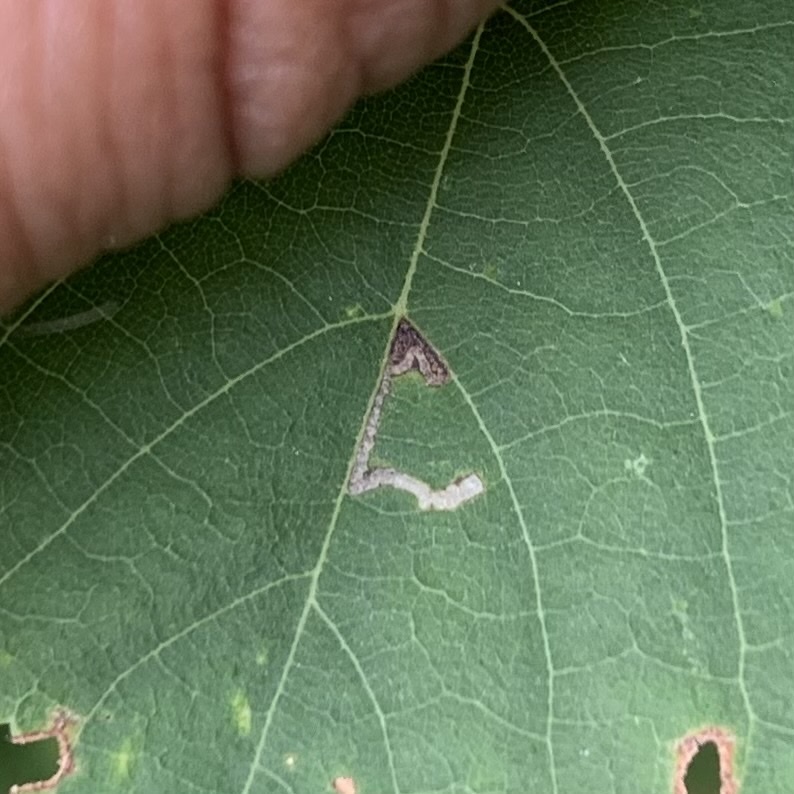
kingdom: Animalia
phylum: Arthropoda
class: Insecta
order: Lepidoptera
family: Bucculatricidae
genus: Bucculatrix
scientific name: Bucculatrix improvisa
